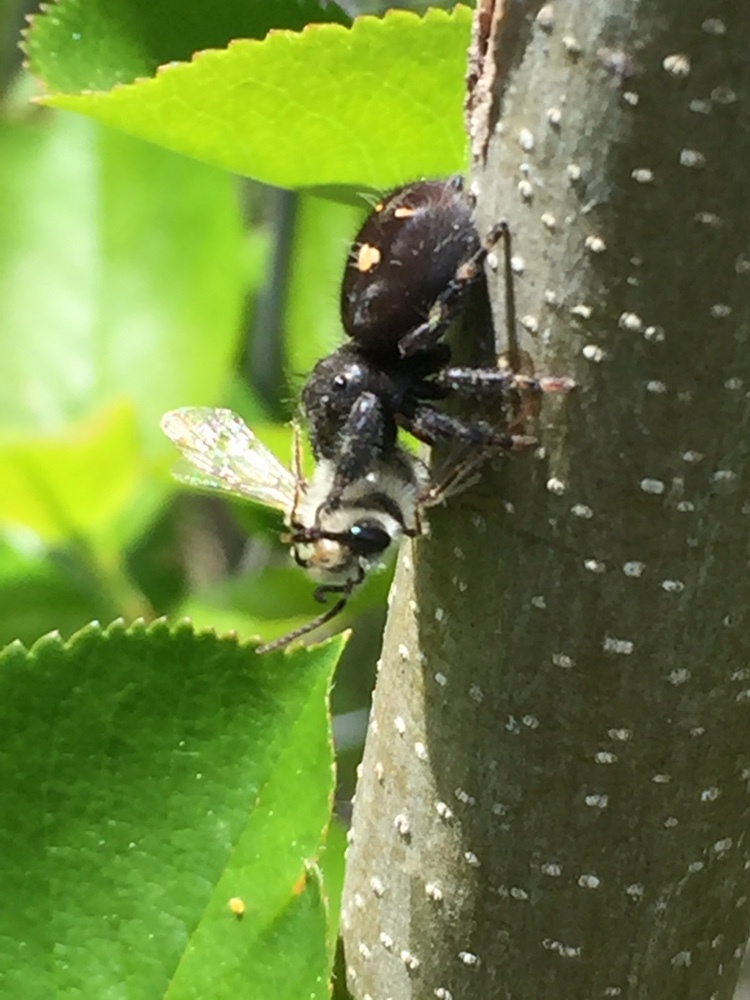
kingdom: Animalia
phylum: Arthropoda
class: Arachnida
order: Araneae
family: Salticidae
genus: Phidippus
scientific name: Phidippus audax
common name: Bold jumper
